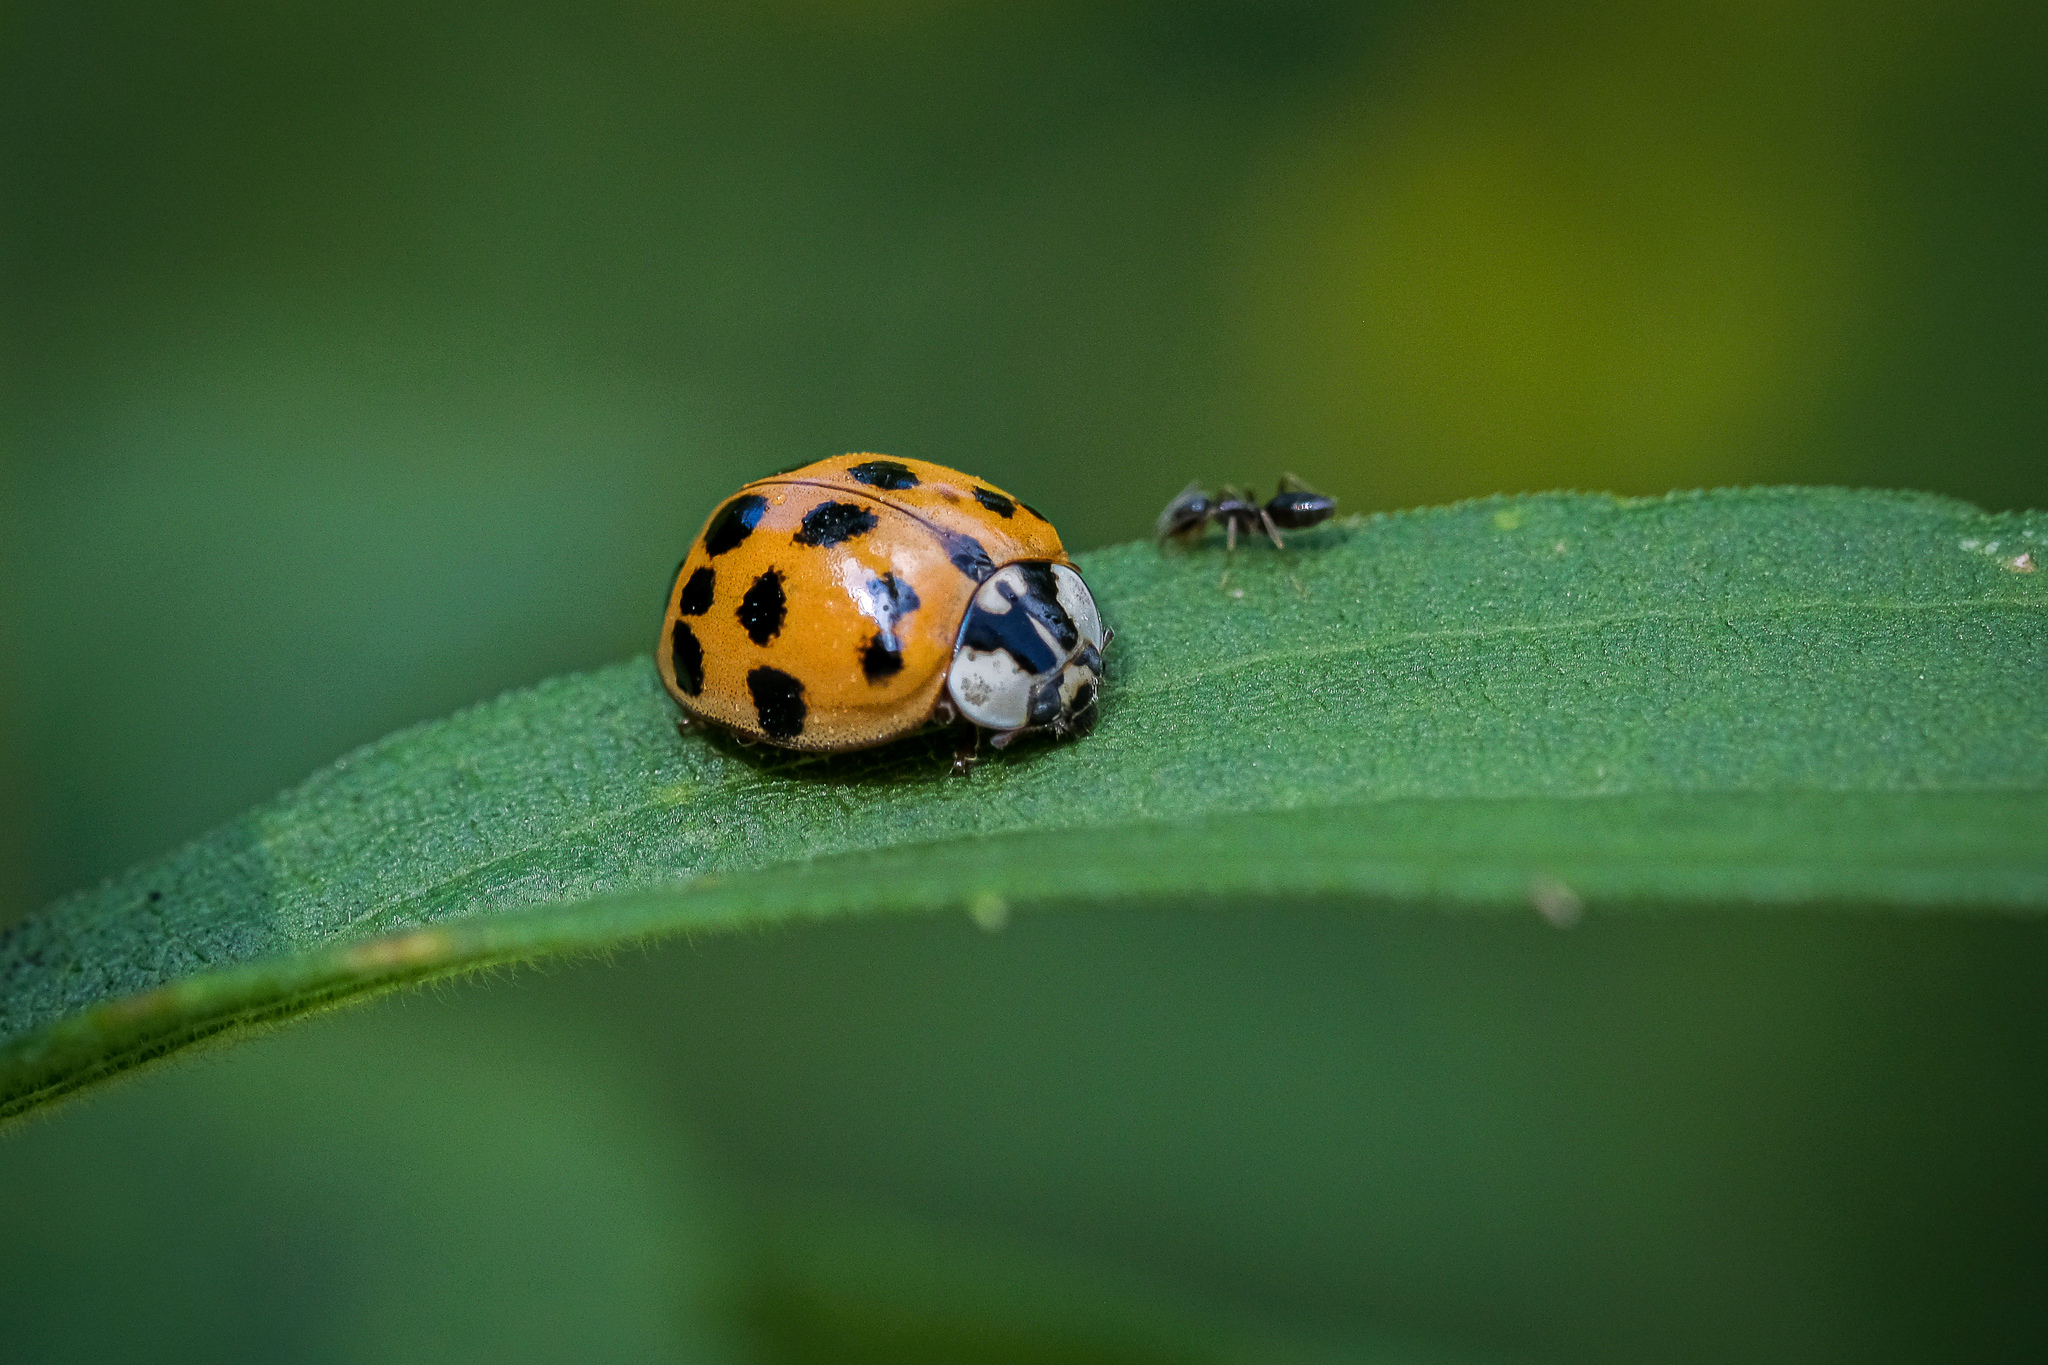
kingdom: Animalia
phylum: Arthropoda
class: Insecta
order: Coleoptera
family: Coccinellidae
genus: Harmonia
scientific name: Harmonia axyridis
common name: Harlequin ladybird
